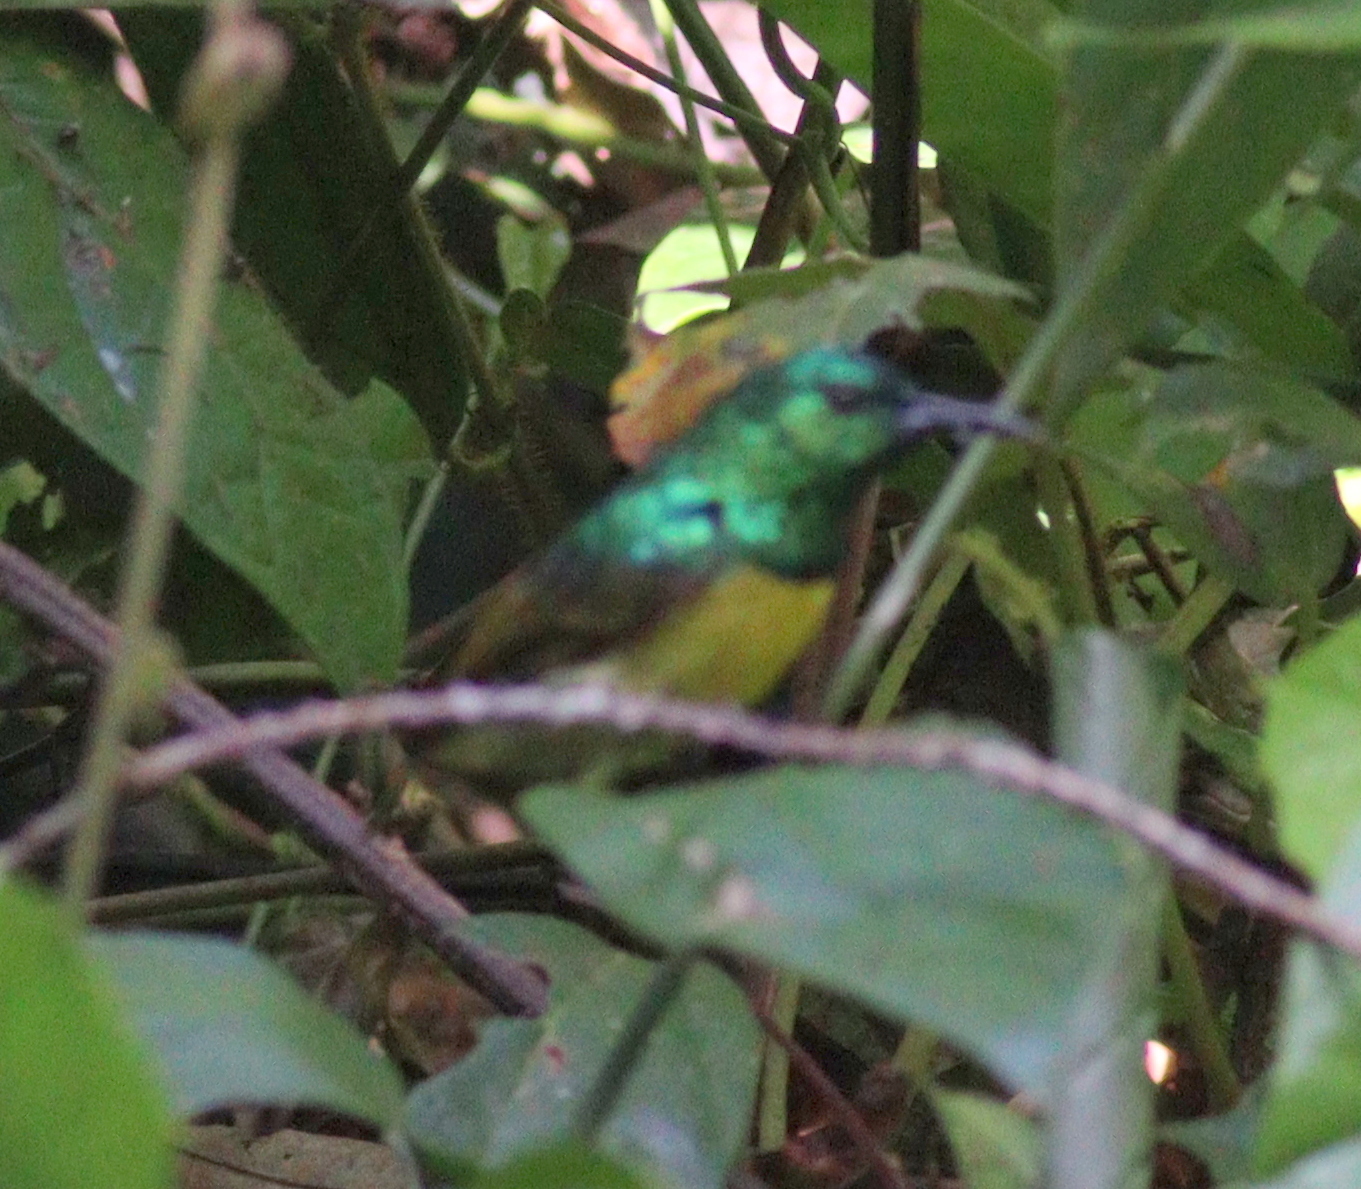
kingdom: Animalia
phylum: Chordata
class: Aves
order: Passeriformes
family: Nectariniidae
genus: Hedydipna
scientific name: Hedydipna collaris
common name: Collared sunbird
